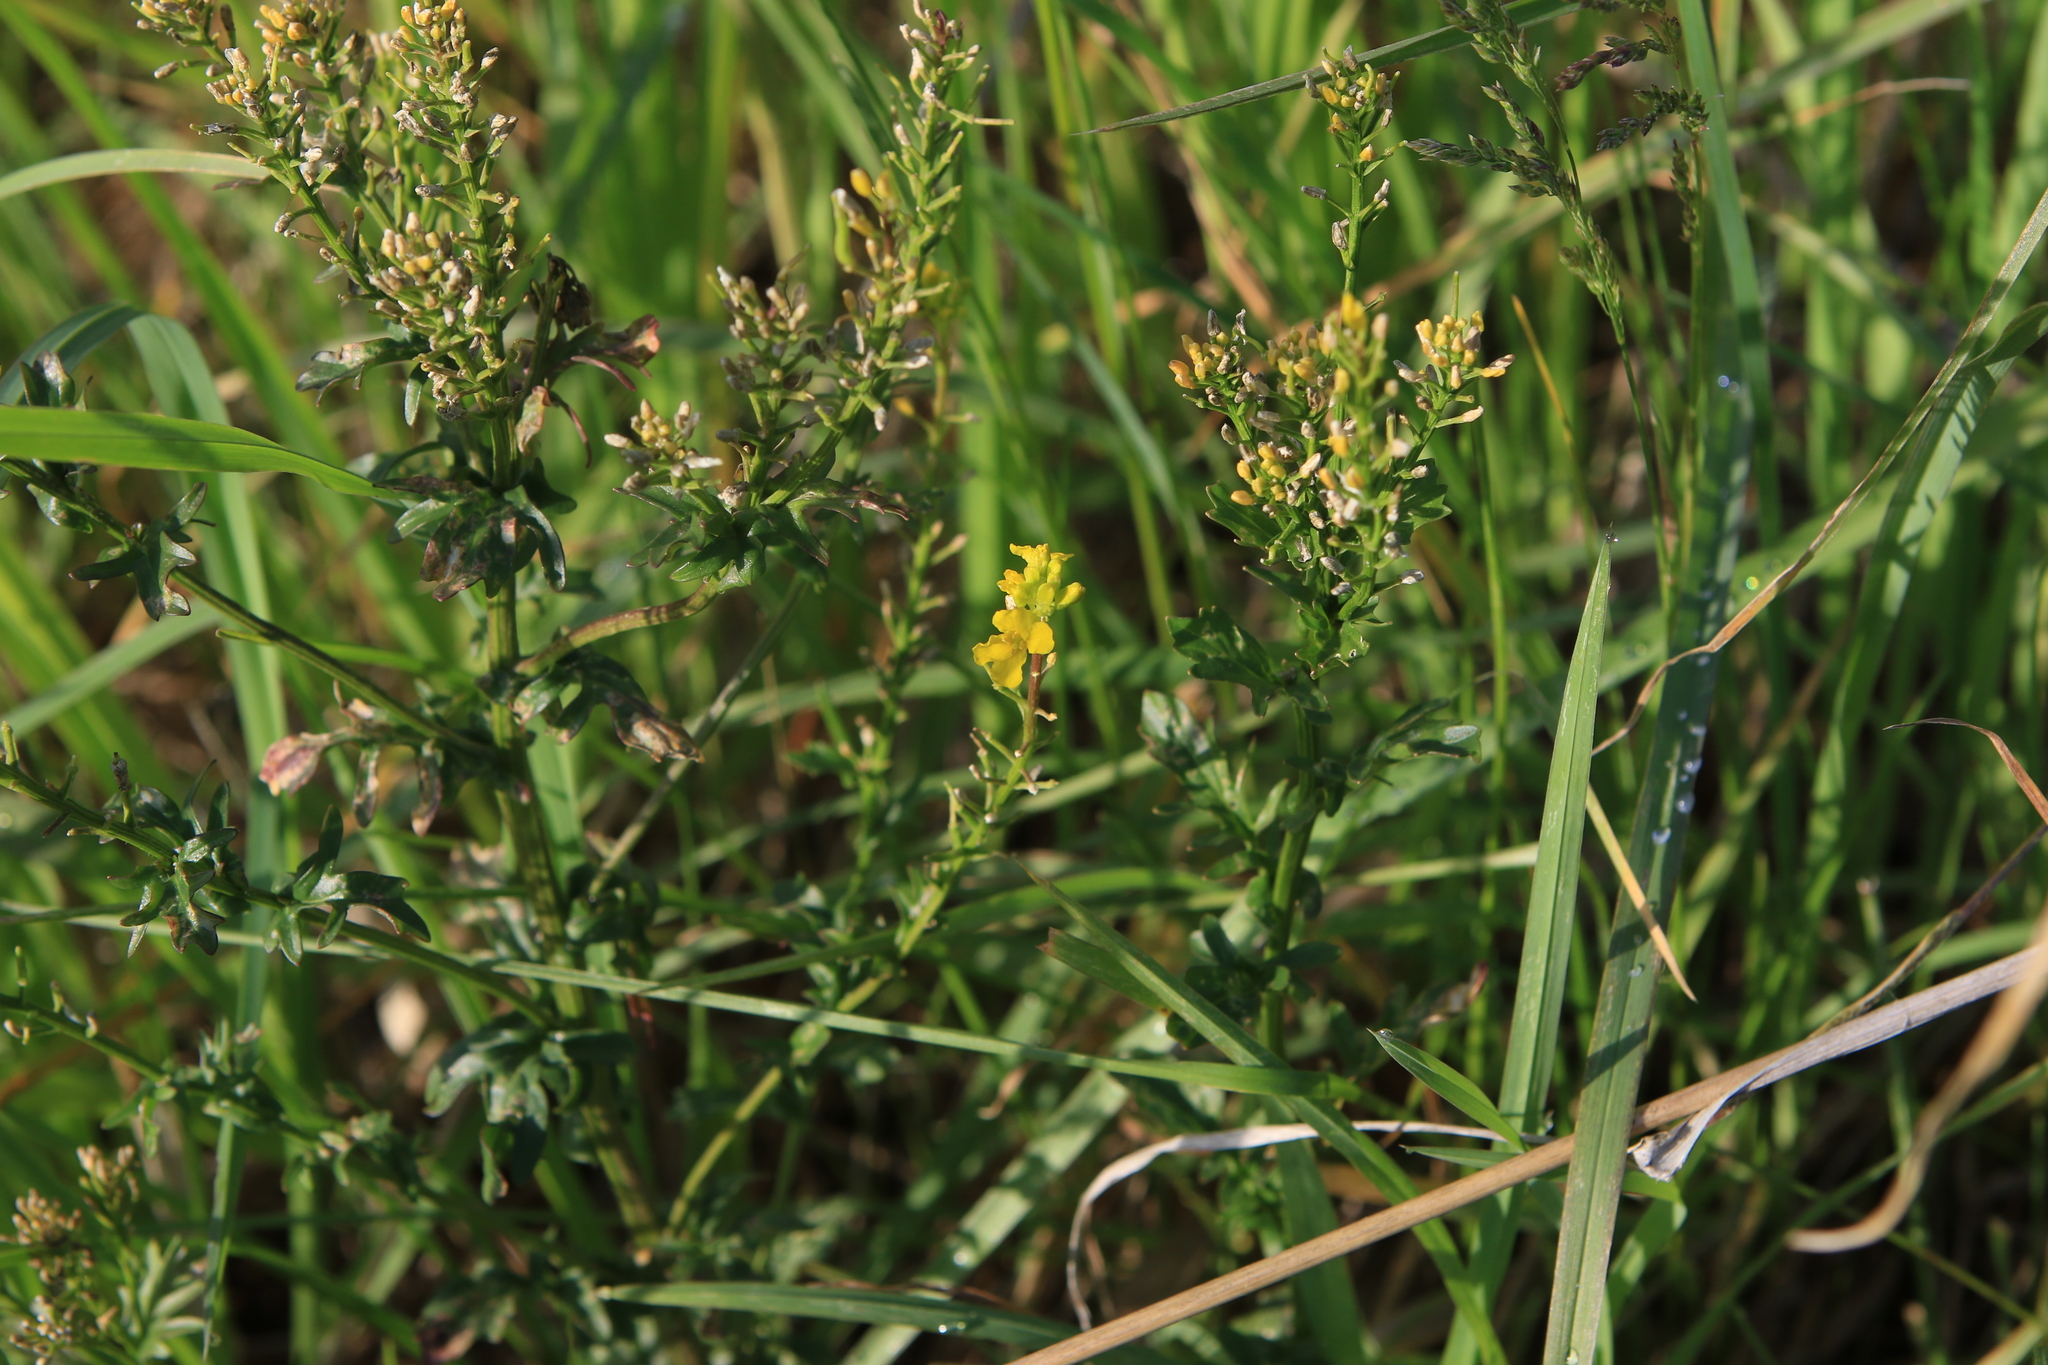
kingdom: Plantae
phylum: Tracheophyta
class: Magnoliopsida
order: Brassicales
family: Brassicaceae
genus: Barbarea
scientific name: Barbarea vulgaris
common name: Cressy-greens
